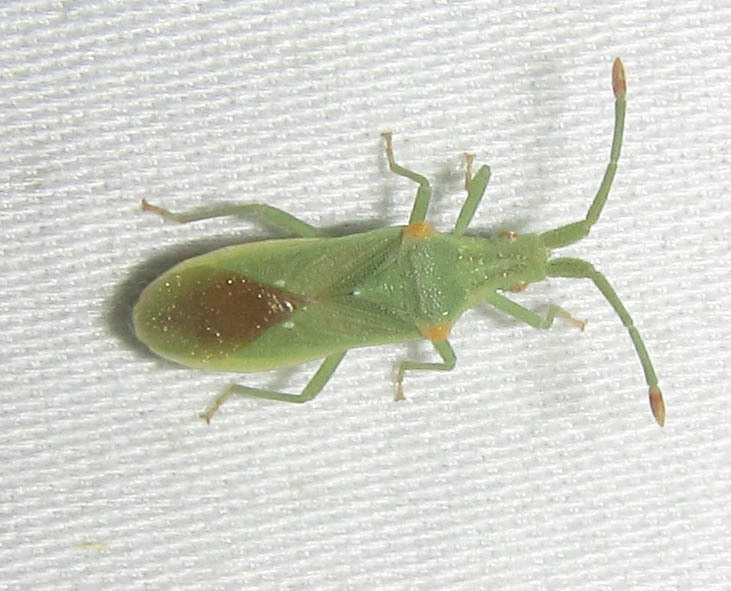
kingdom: Animalia
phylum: Arthropoda
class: Insecta
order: Hemiptera
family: Coreidae
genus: Brotheolus
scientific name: Brotheolus viridis
